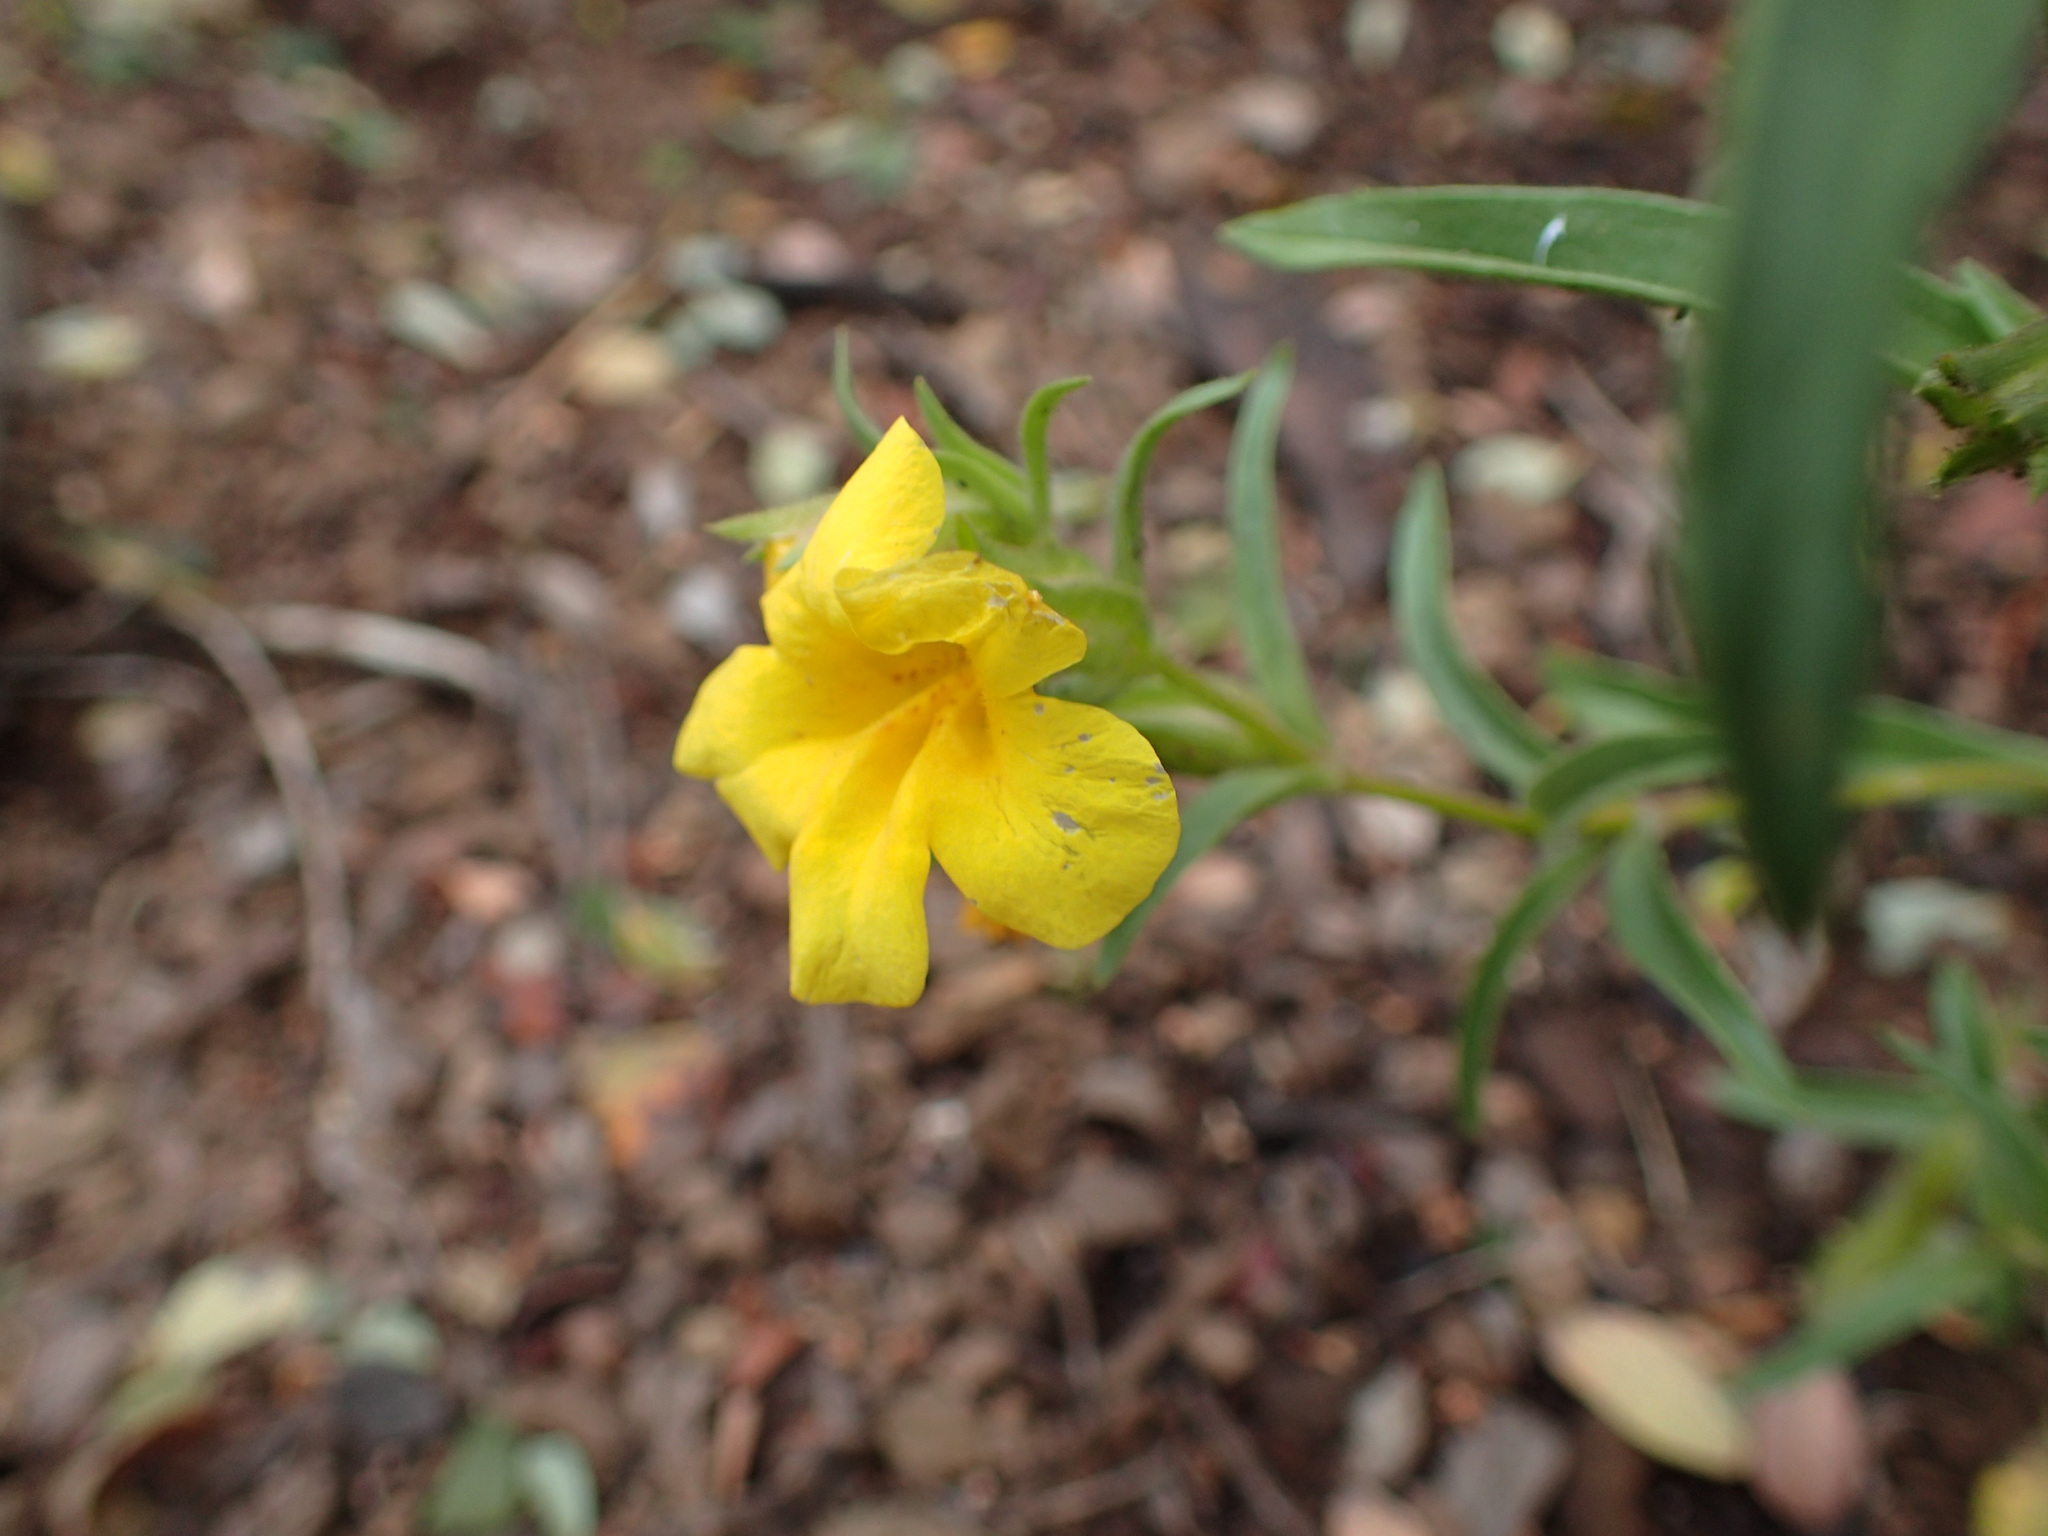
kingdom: Plantae
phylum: Tracheophyta
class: Magnoliopsida
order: Lamiales
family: Phrymaceae
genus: Diplacus
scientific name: Diplacus brevipes
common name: Wide-throat yellow monkey-flower
